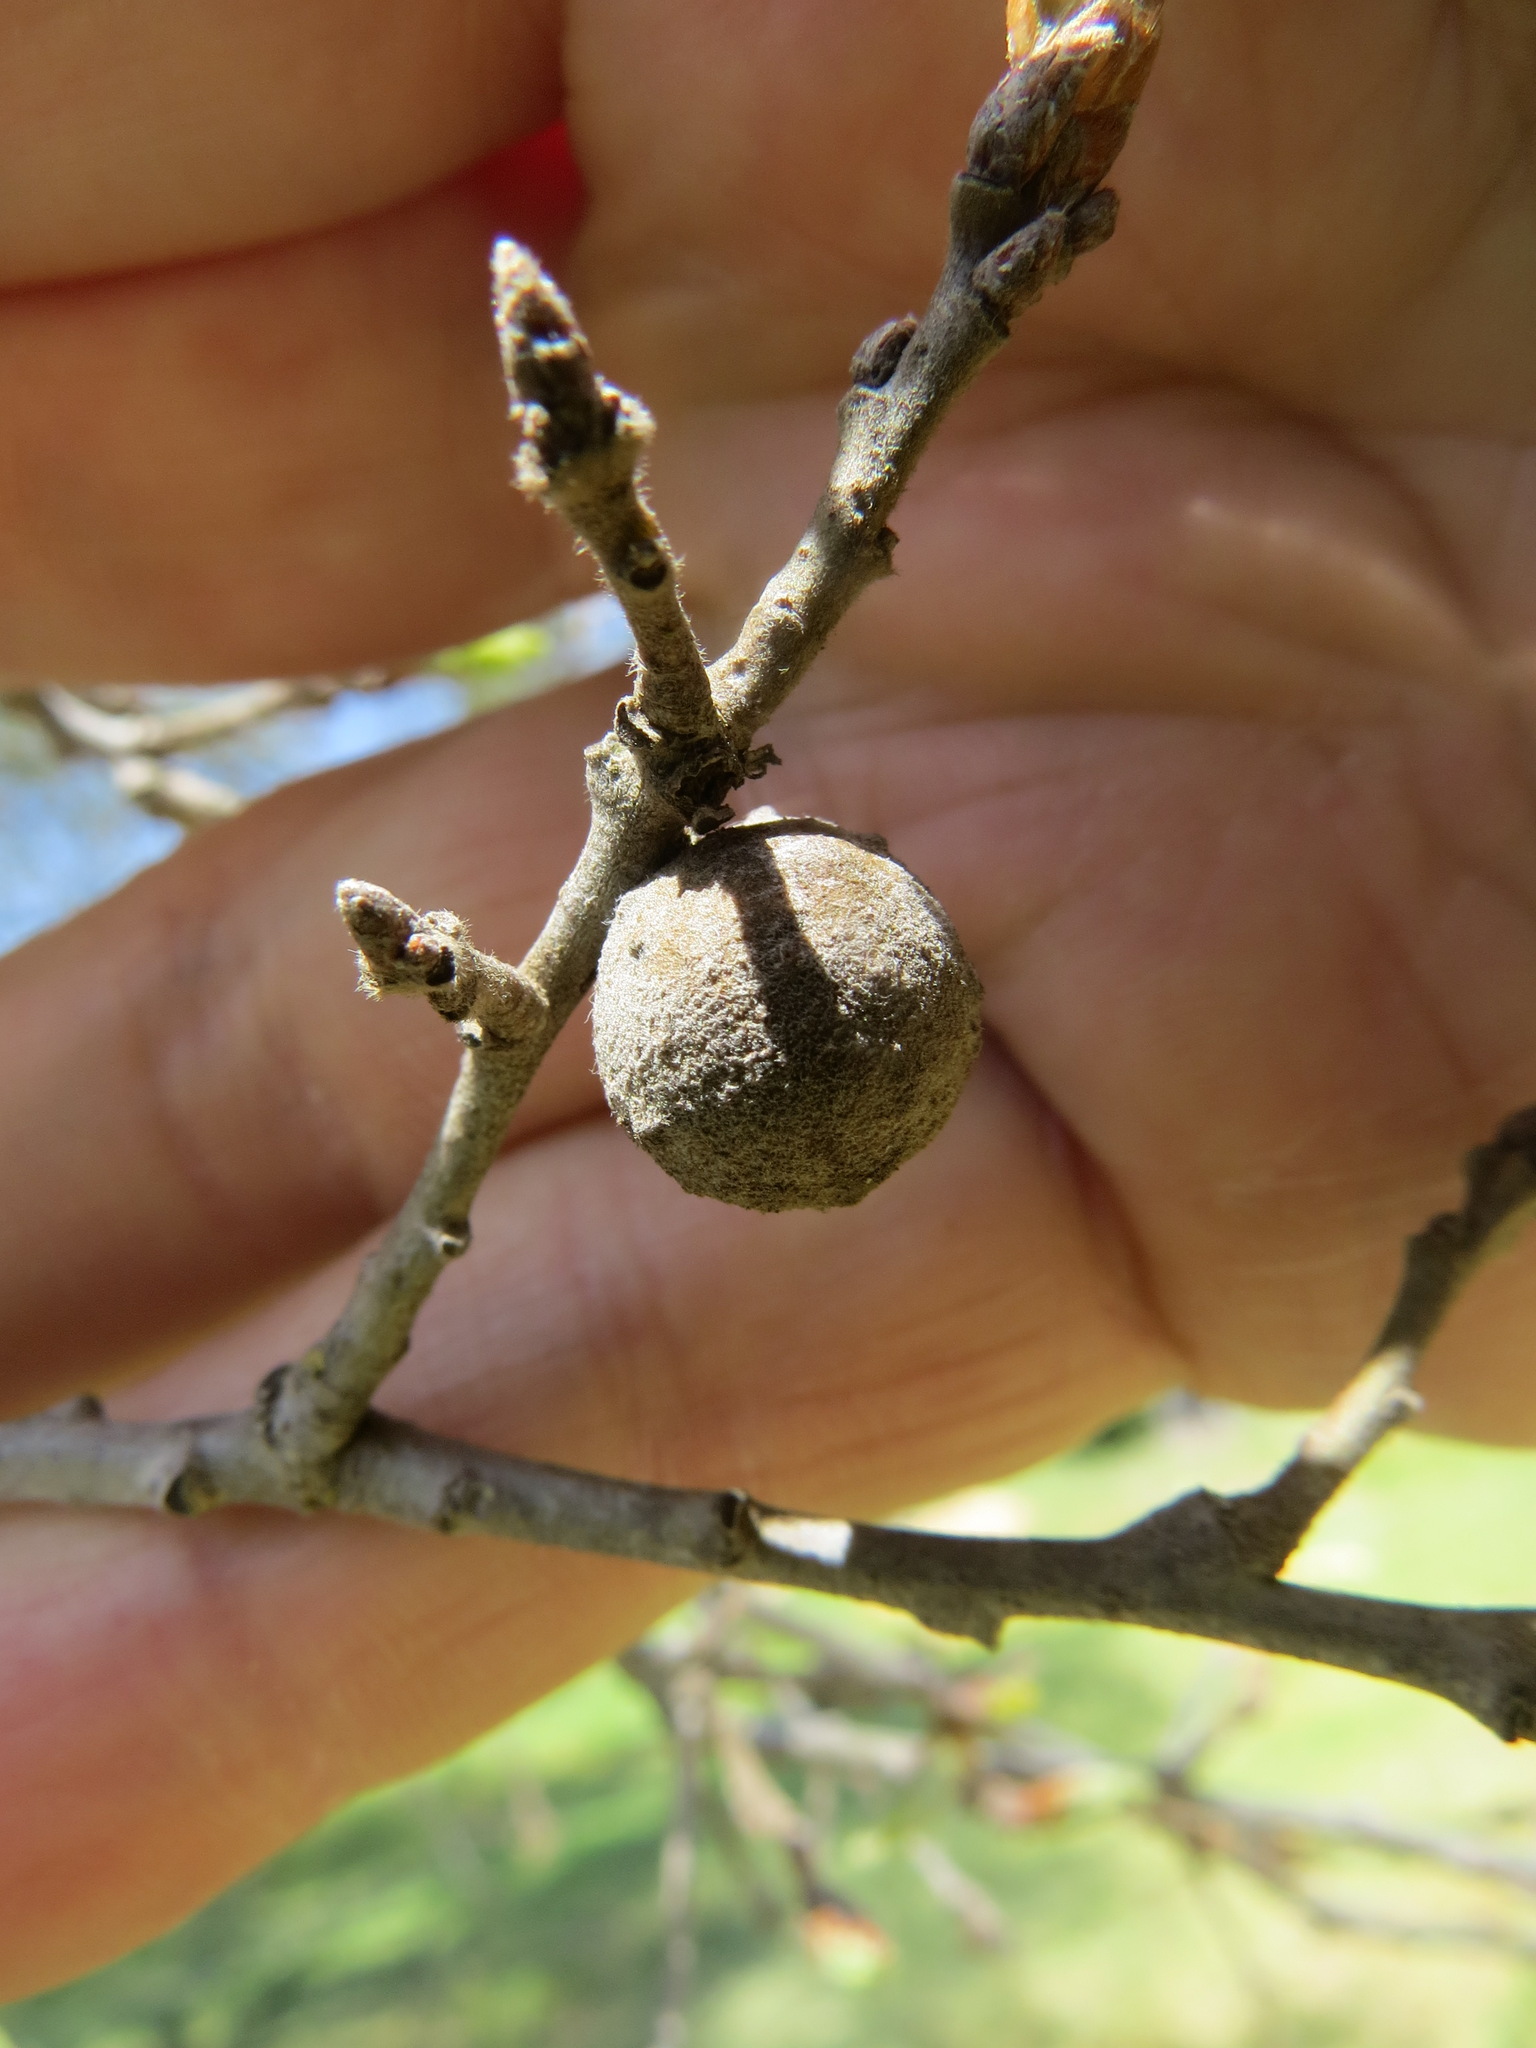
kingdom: Animalia
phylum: Arthropoda
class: Insecta
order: Hymenoptera
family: Cynipidae
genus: Burnettweldia
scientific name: Burnettweldia
